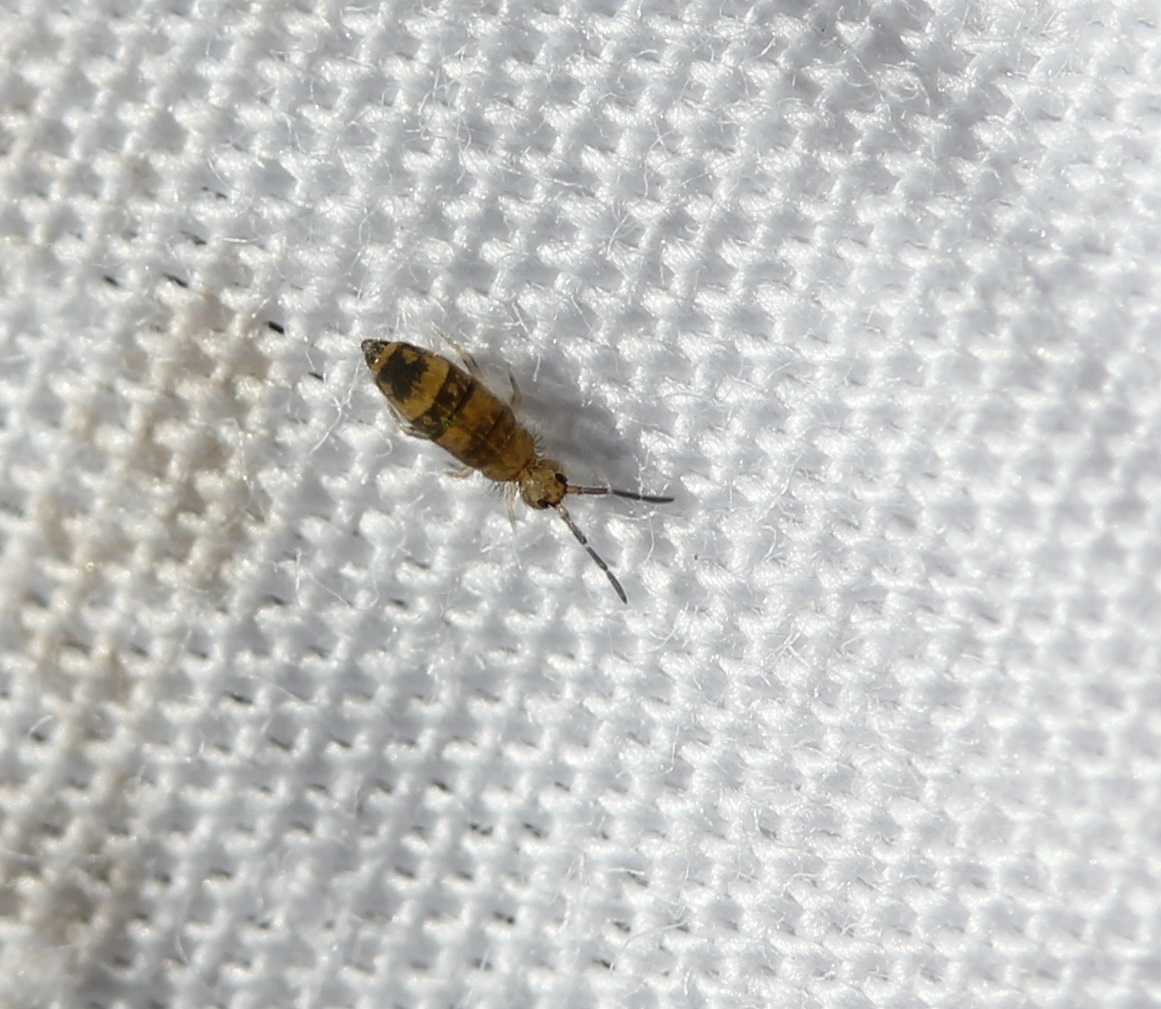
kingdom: Animalia
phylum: Arthropoda
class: Collembola
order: Entomobryomorpha
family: Entomobryidae
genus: Entomobrya
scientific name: Entomobrya assuta
